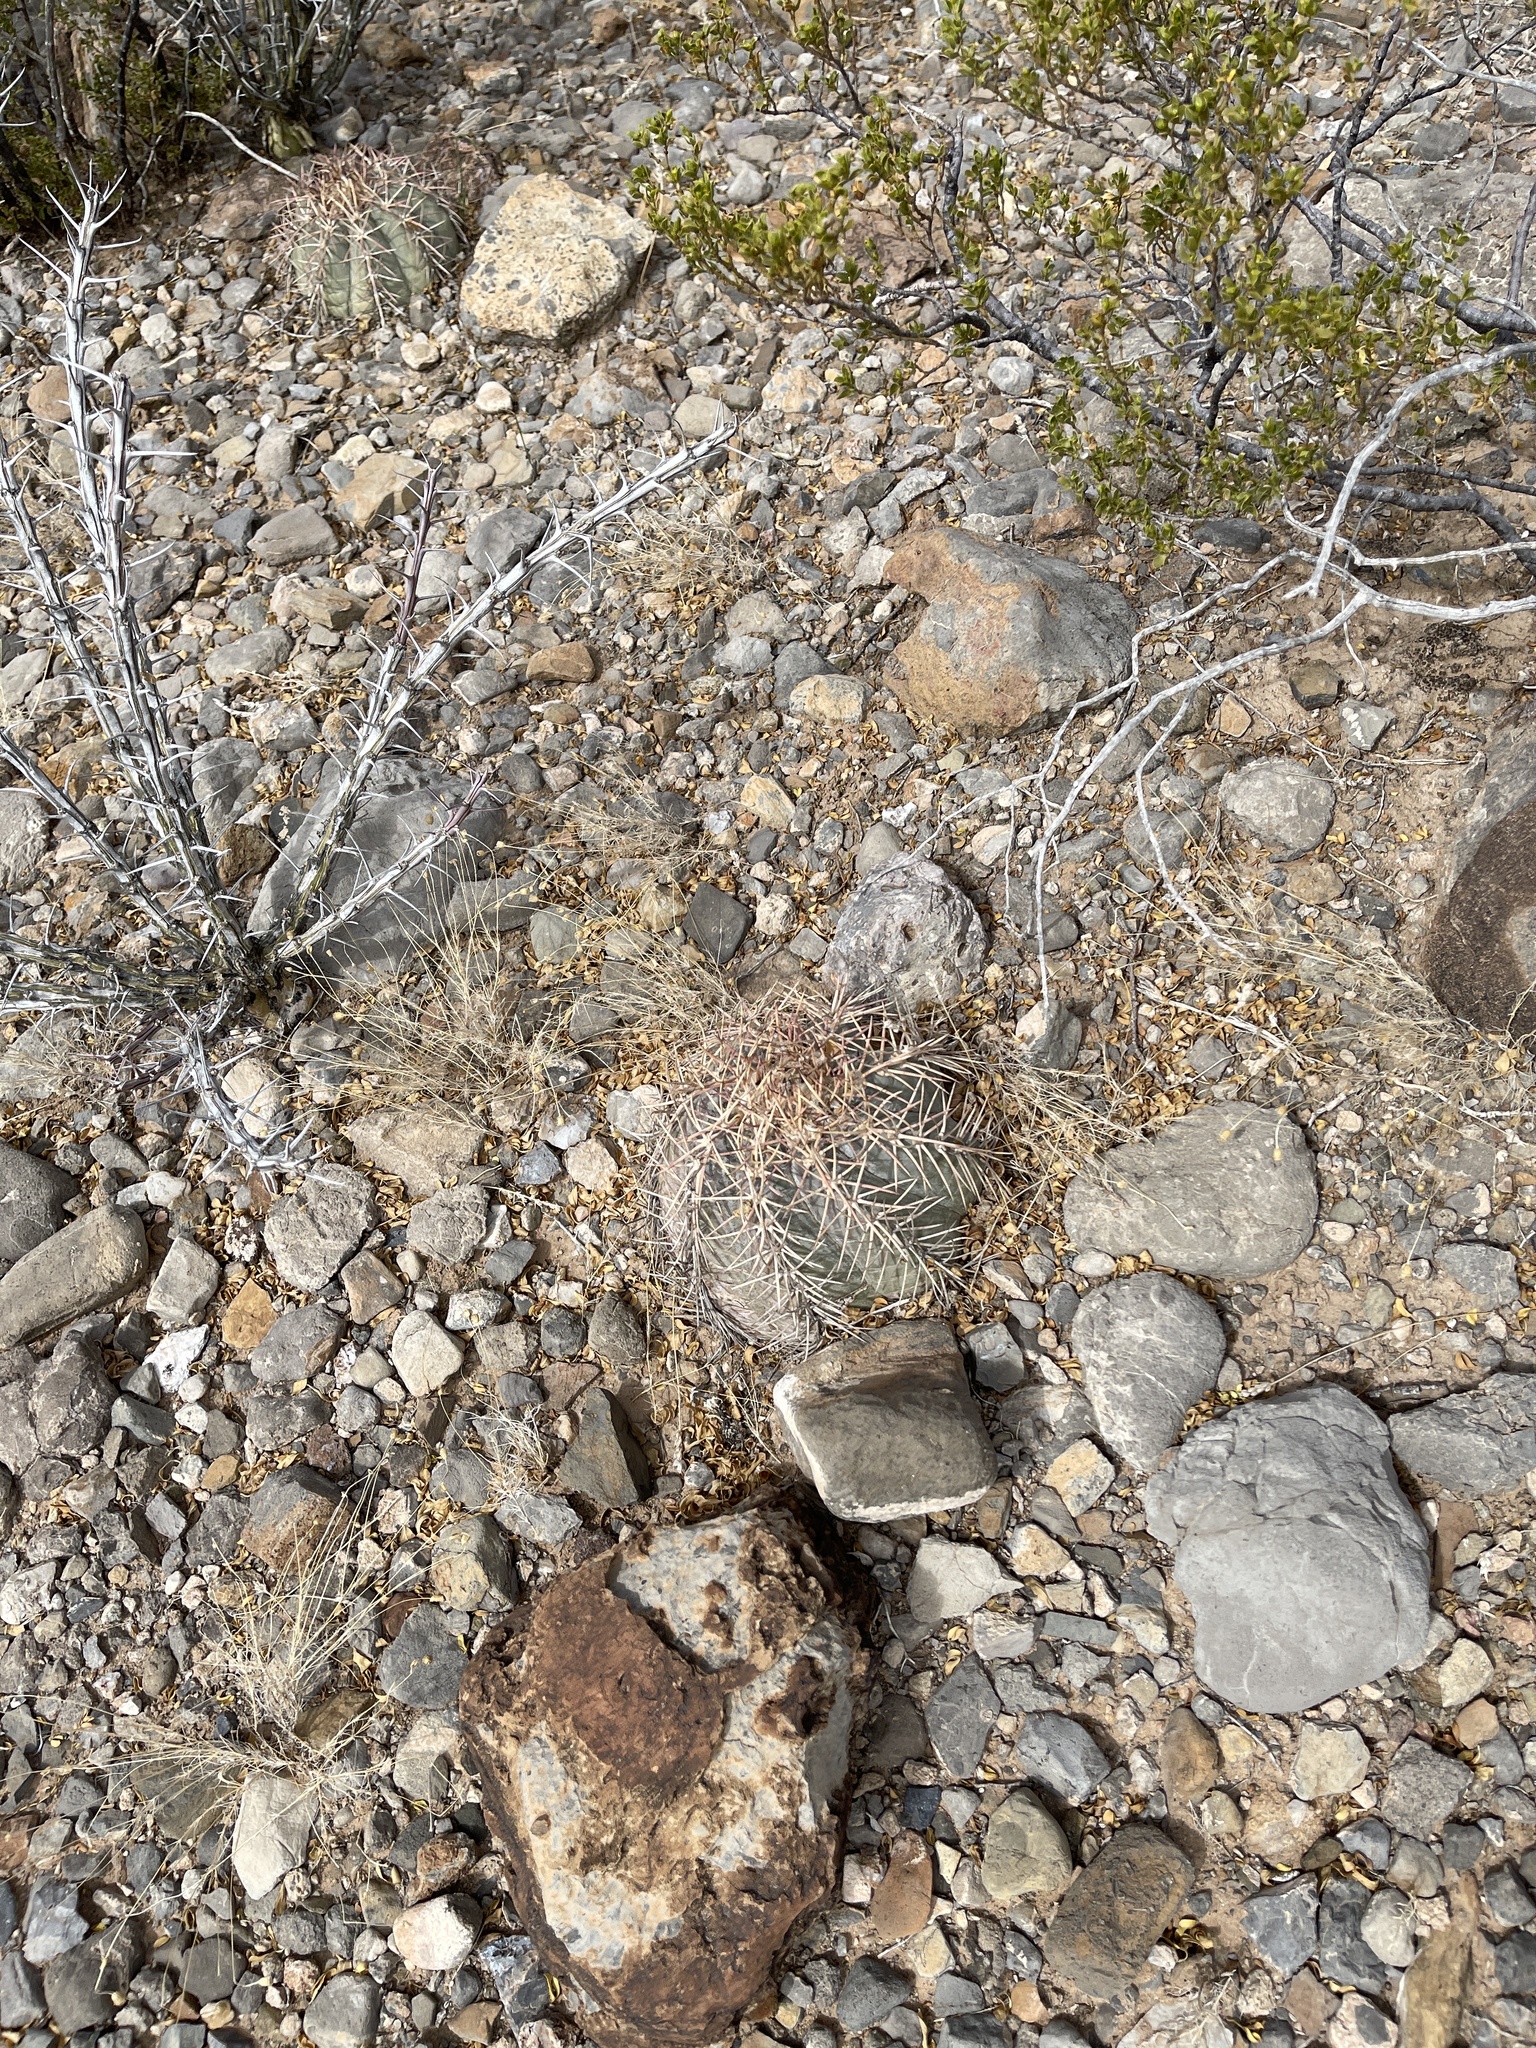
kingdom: Plantae
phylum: Tracheophyta
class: Magnoliopsida
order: Caryophyllales
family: Cactaceae
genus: Echinocactus
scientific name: Echinocactus horizonthalonius
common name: Devilshead
